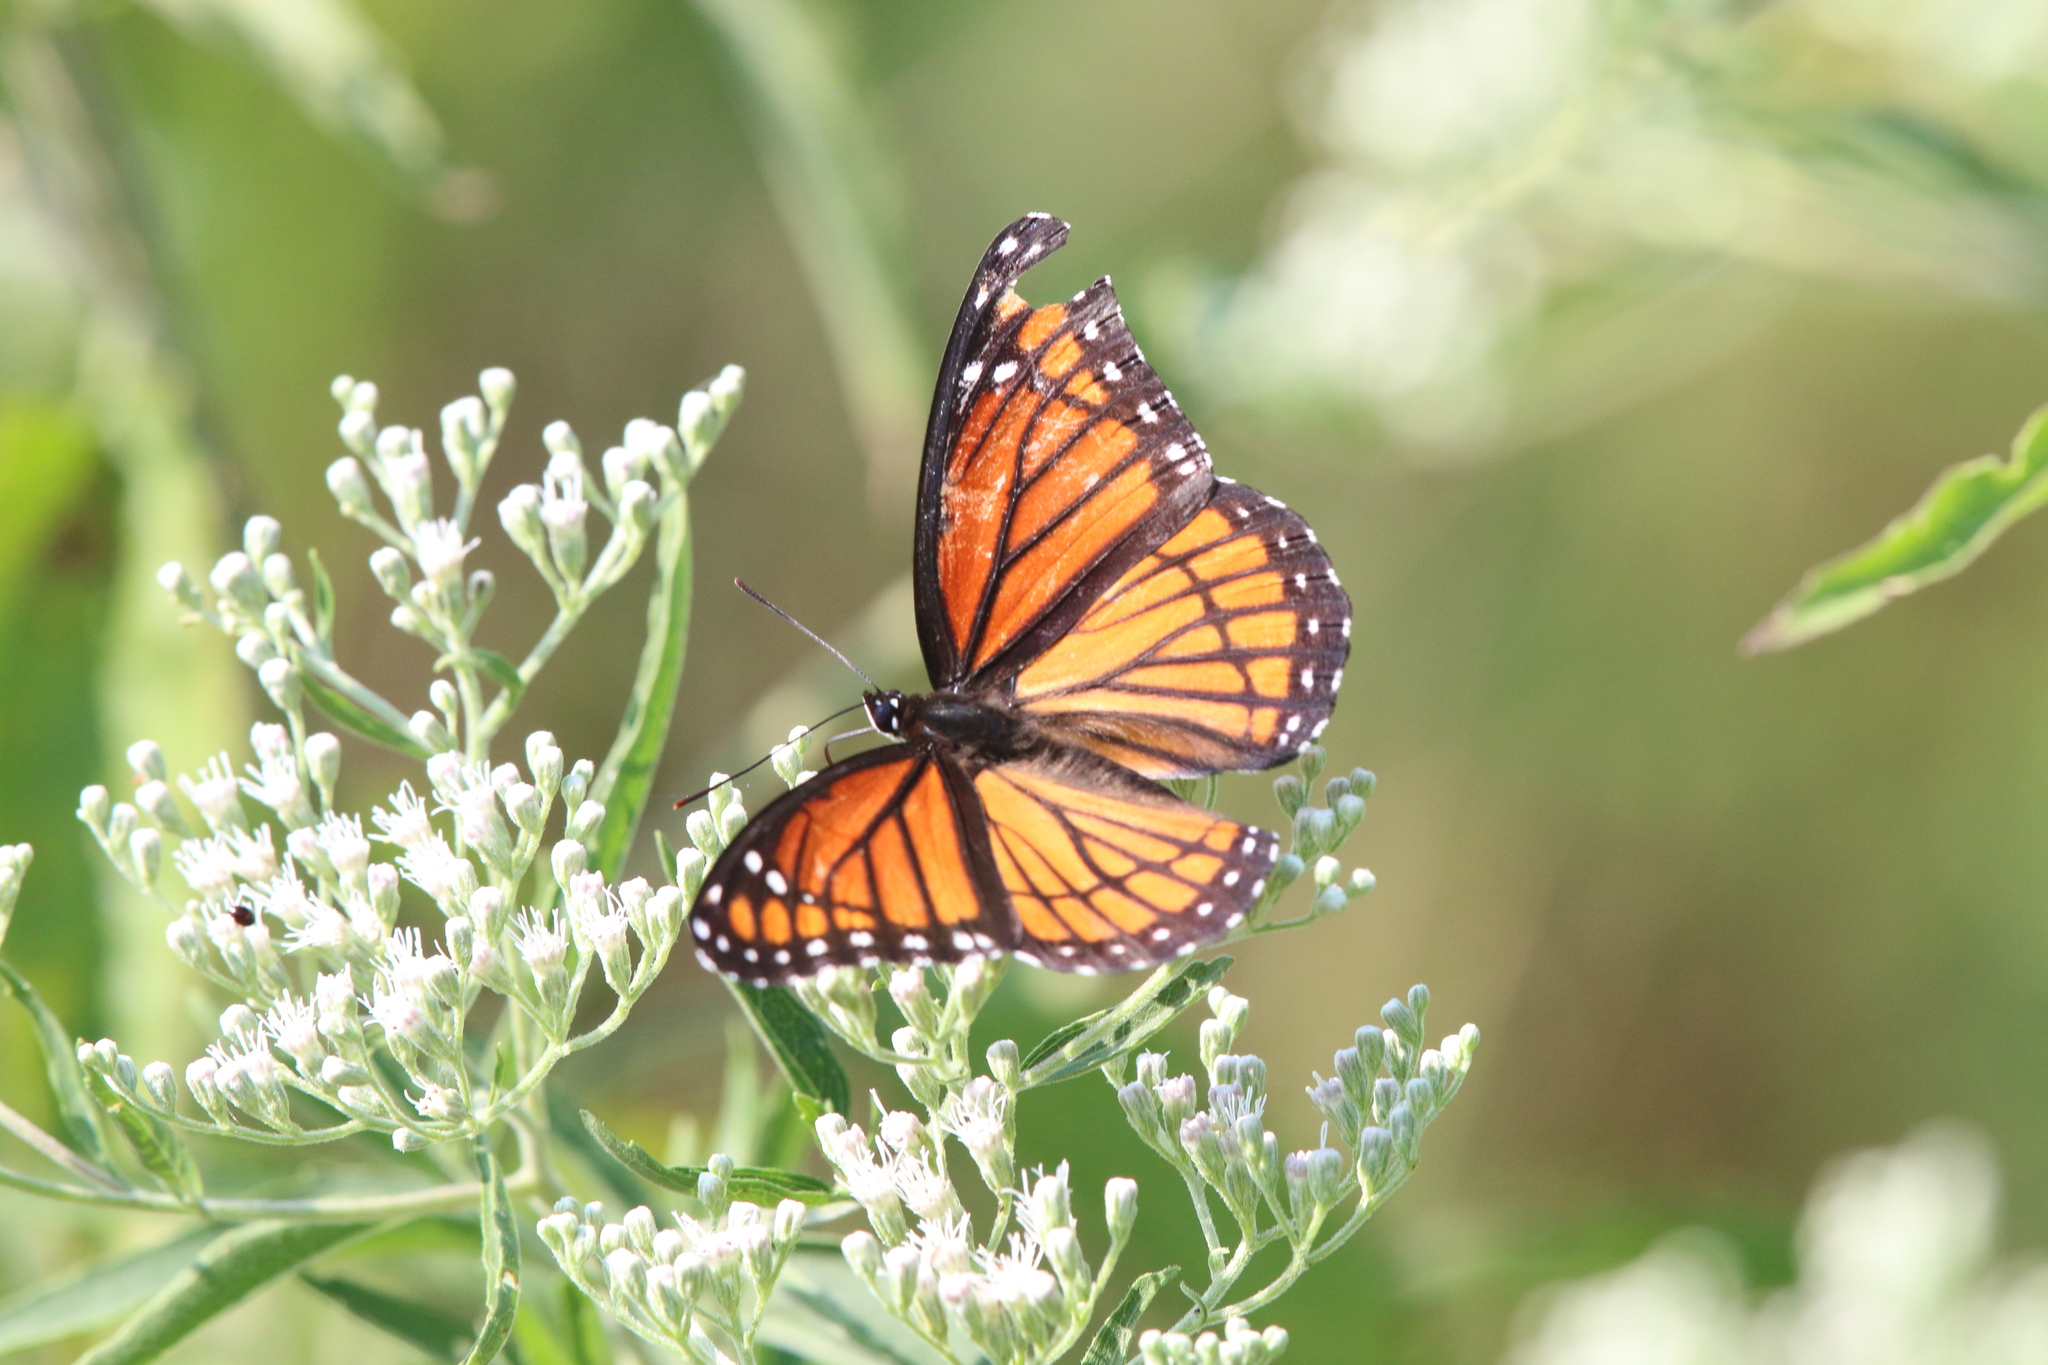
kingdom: Animalia
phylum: Arthropoda
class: Insecta
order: Lepidoptera
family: Nymphalidae
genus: Limenitis
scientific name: Limenitis archippus
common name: Viceroy
